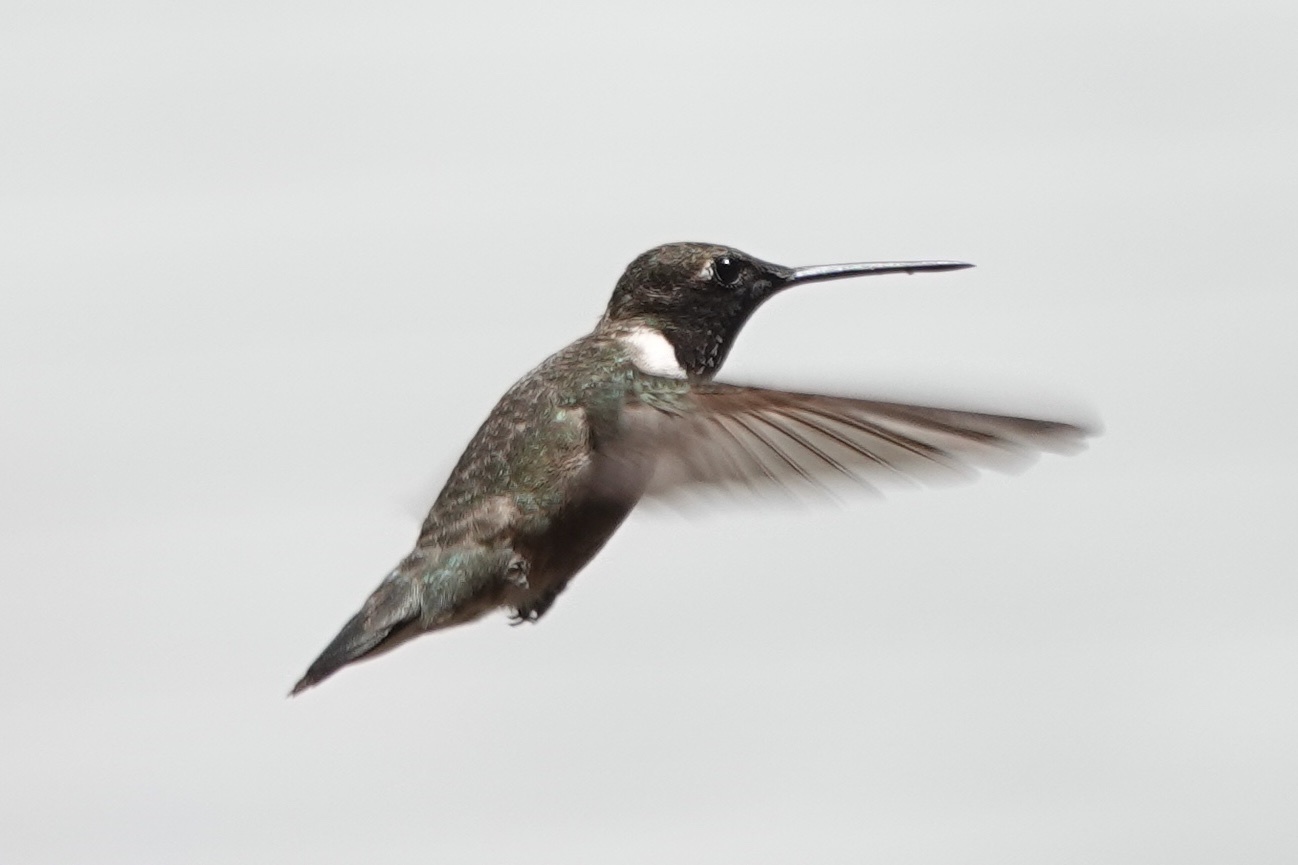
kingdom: Animalia
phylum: Chordata
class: Aves
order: Apodiformes
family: Trochilidae
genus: Archilochus
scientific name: Archilochus alexandri
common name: Black-chinned hummingbird
